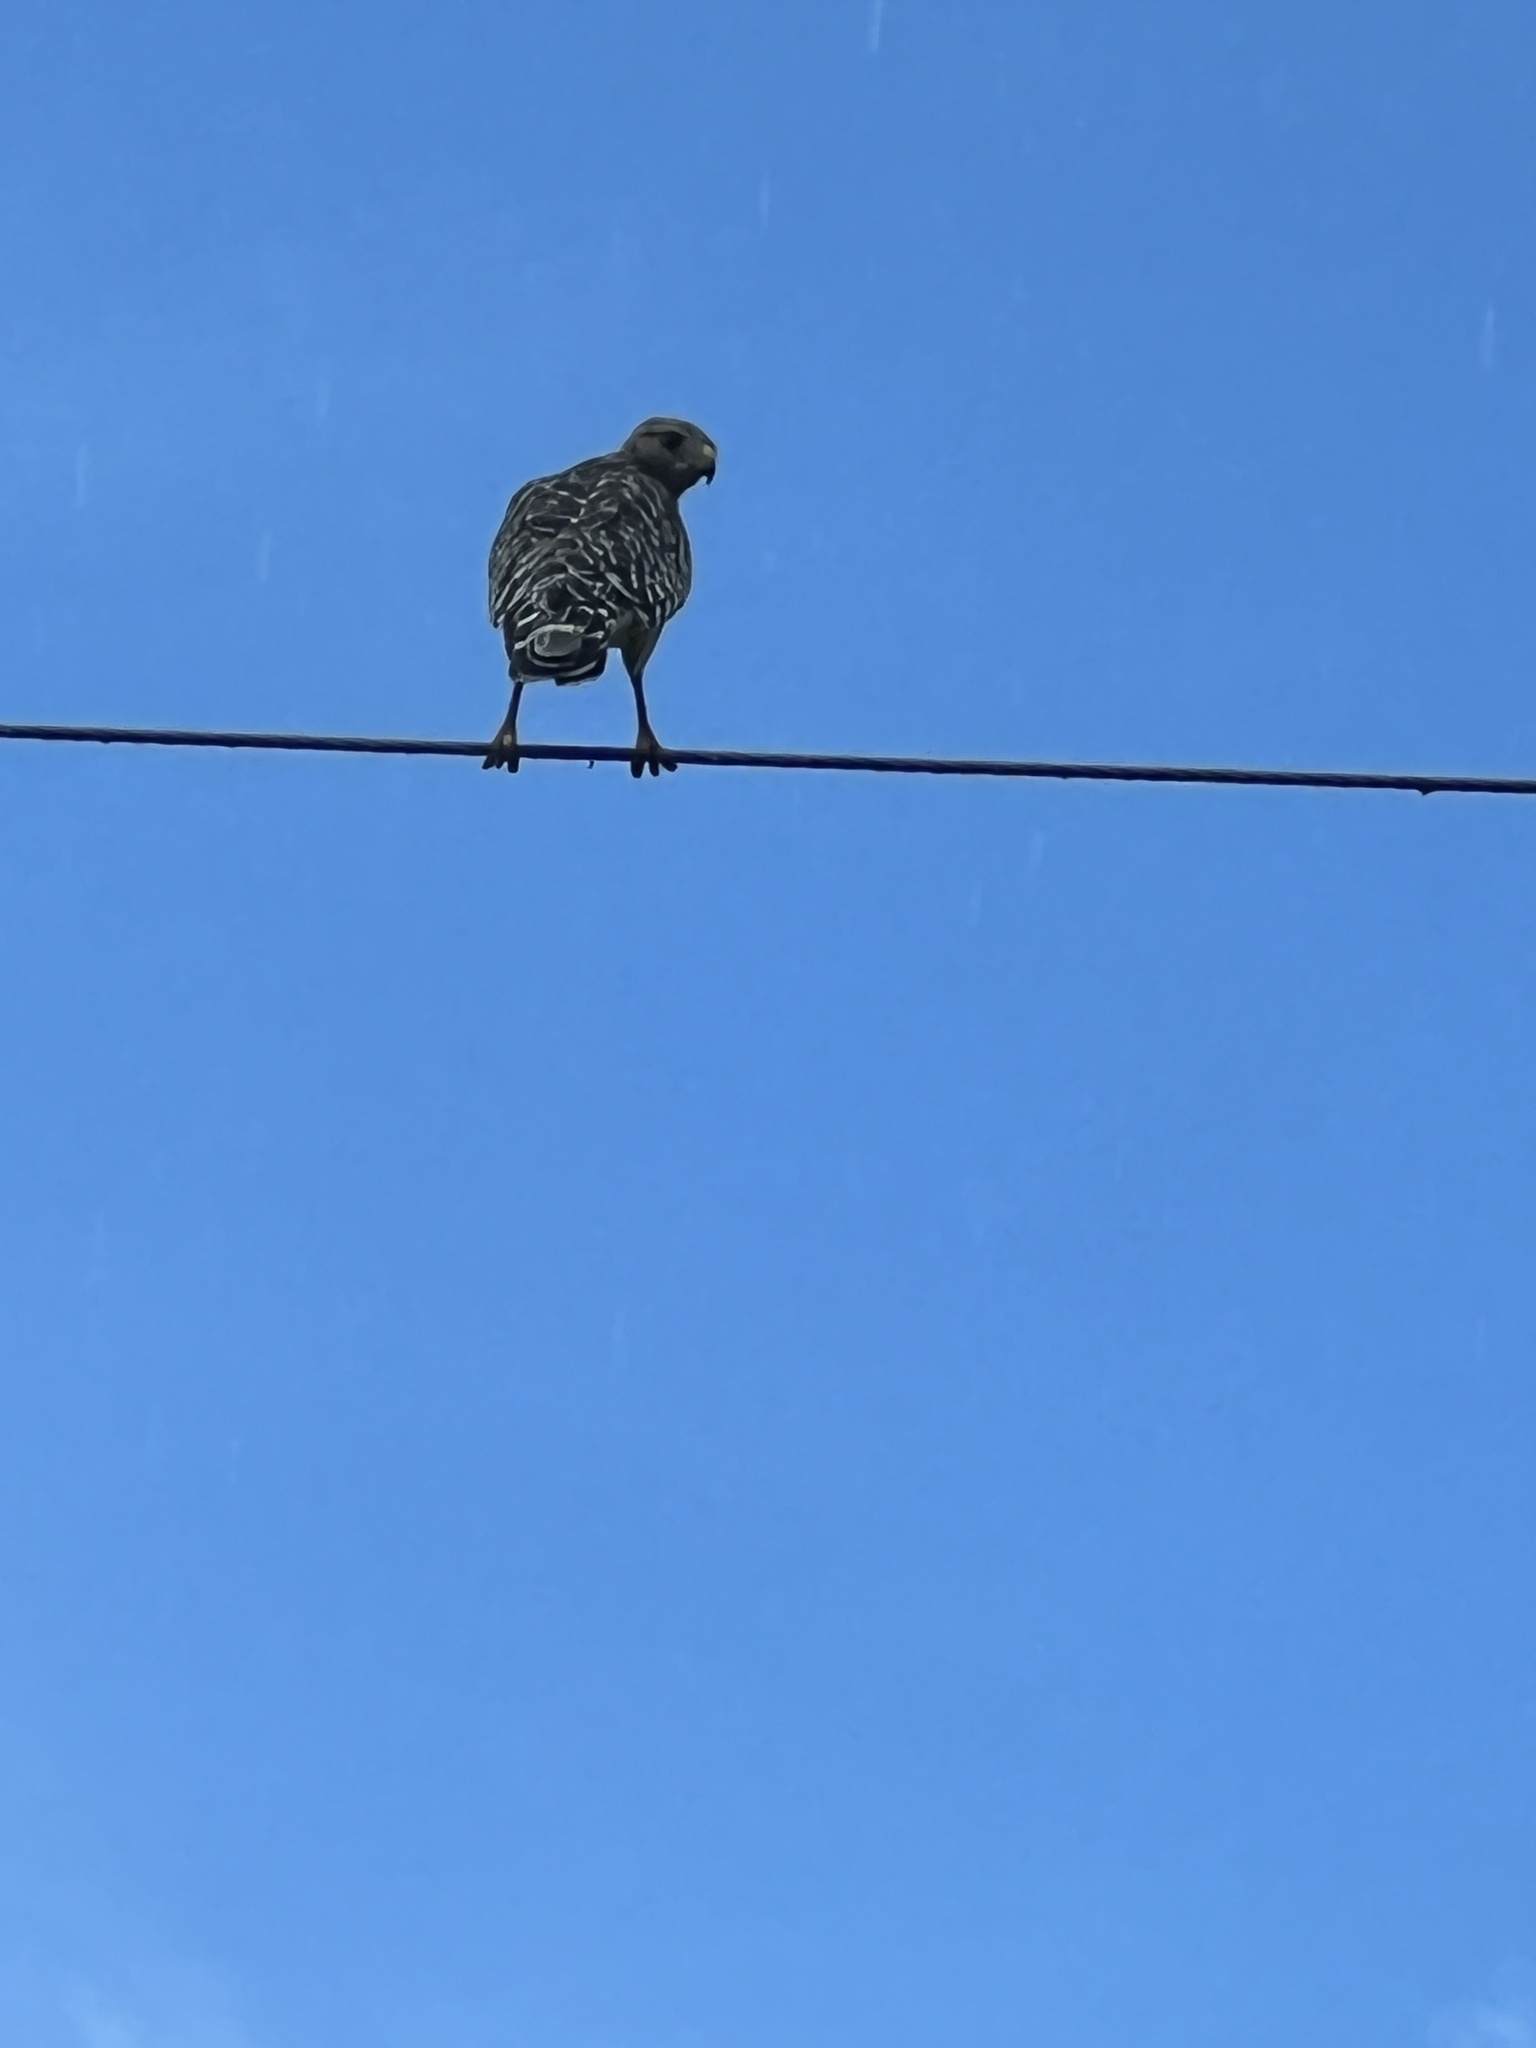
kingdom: Animalia
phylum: Chordata
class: Aves
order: Accipitriformes
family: Accipitridae
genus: Buteo
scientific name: Buteo lineatus
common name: Red-shouldered hawk
